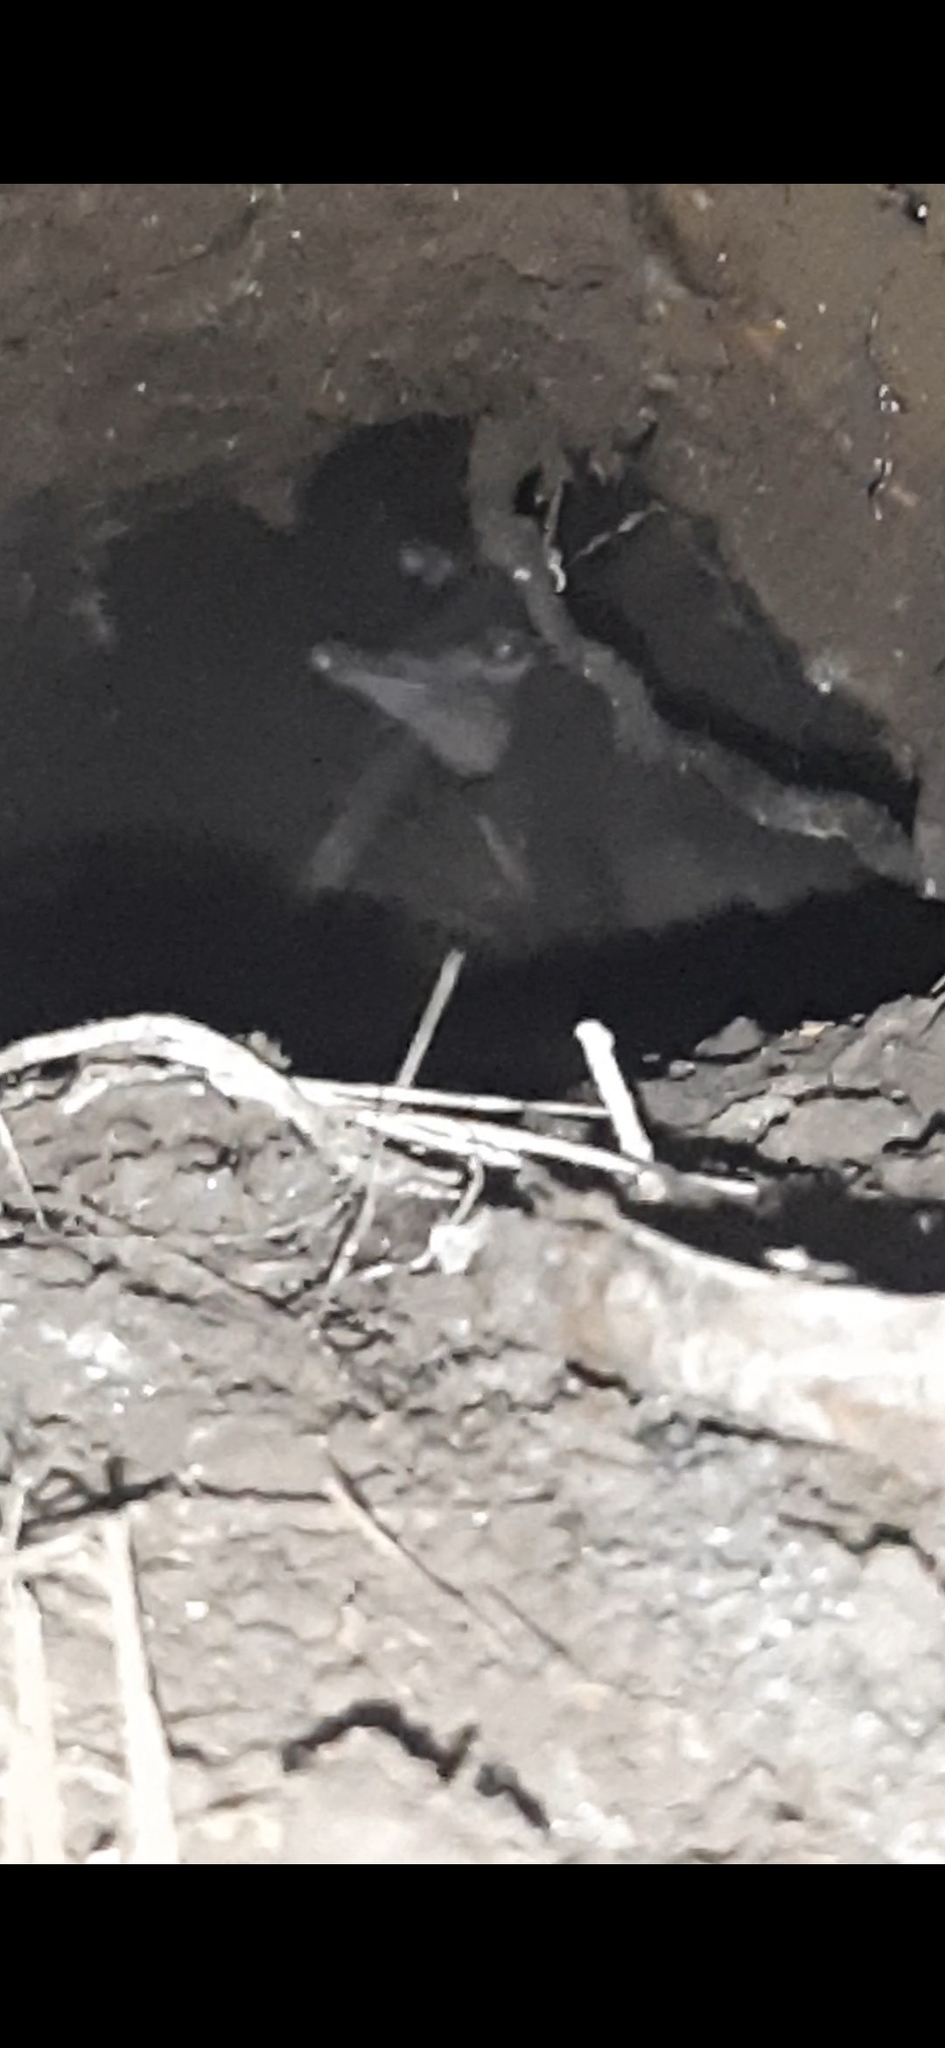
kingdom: Animalia
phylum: Chordata
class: Aves
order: Sphenisciformes
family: Spheniscidae
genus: Eudyptula
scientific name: Eudyptula minor
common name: Little penguin
